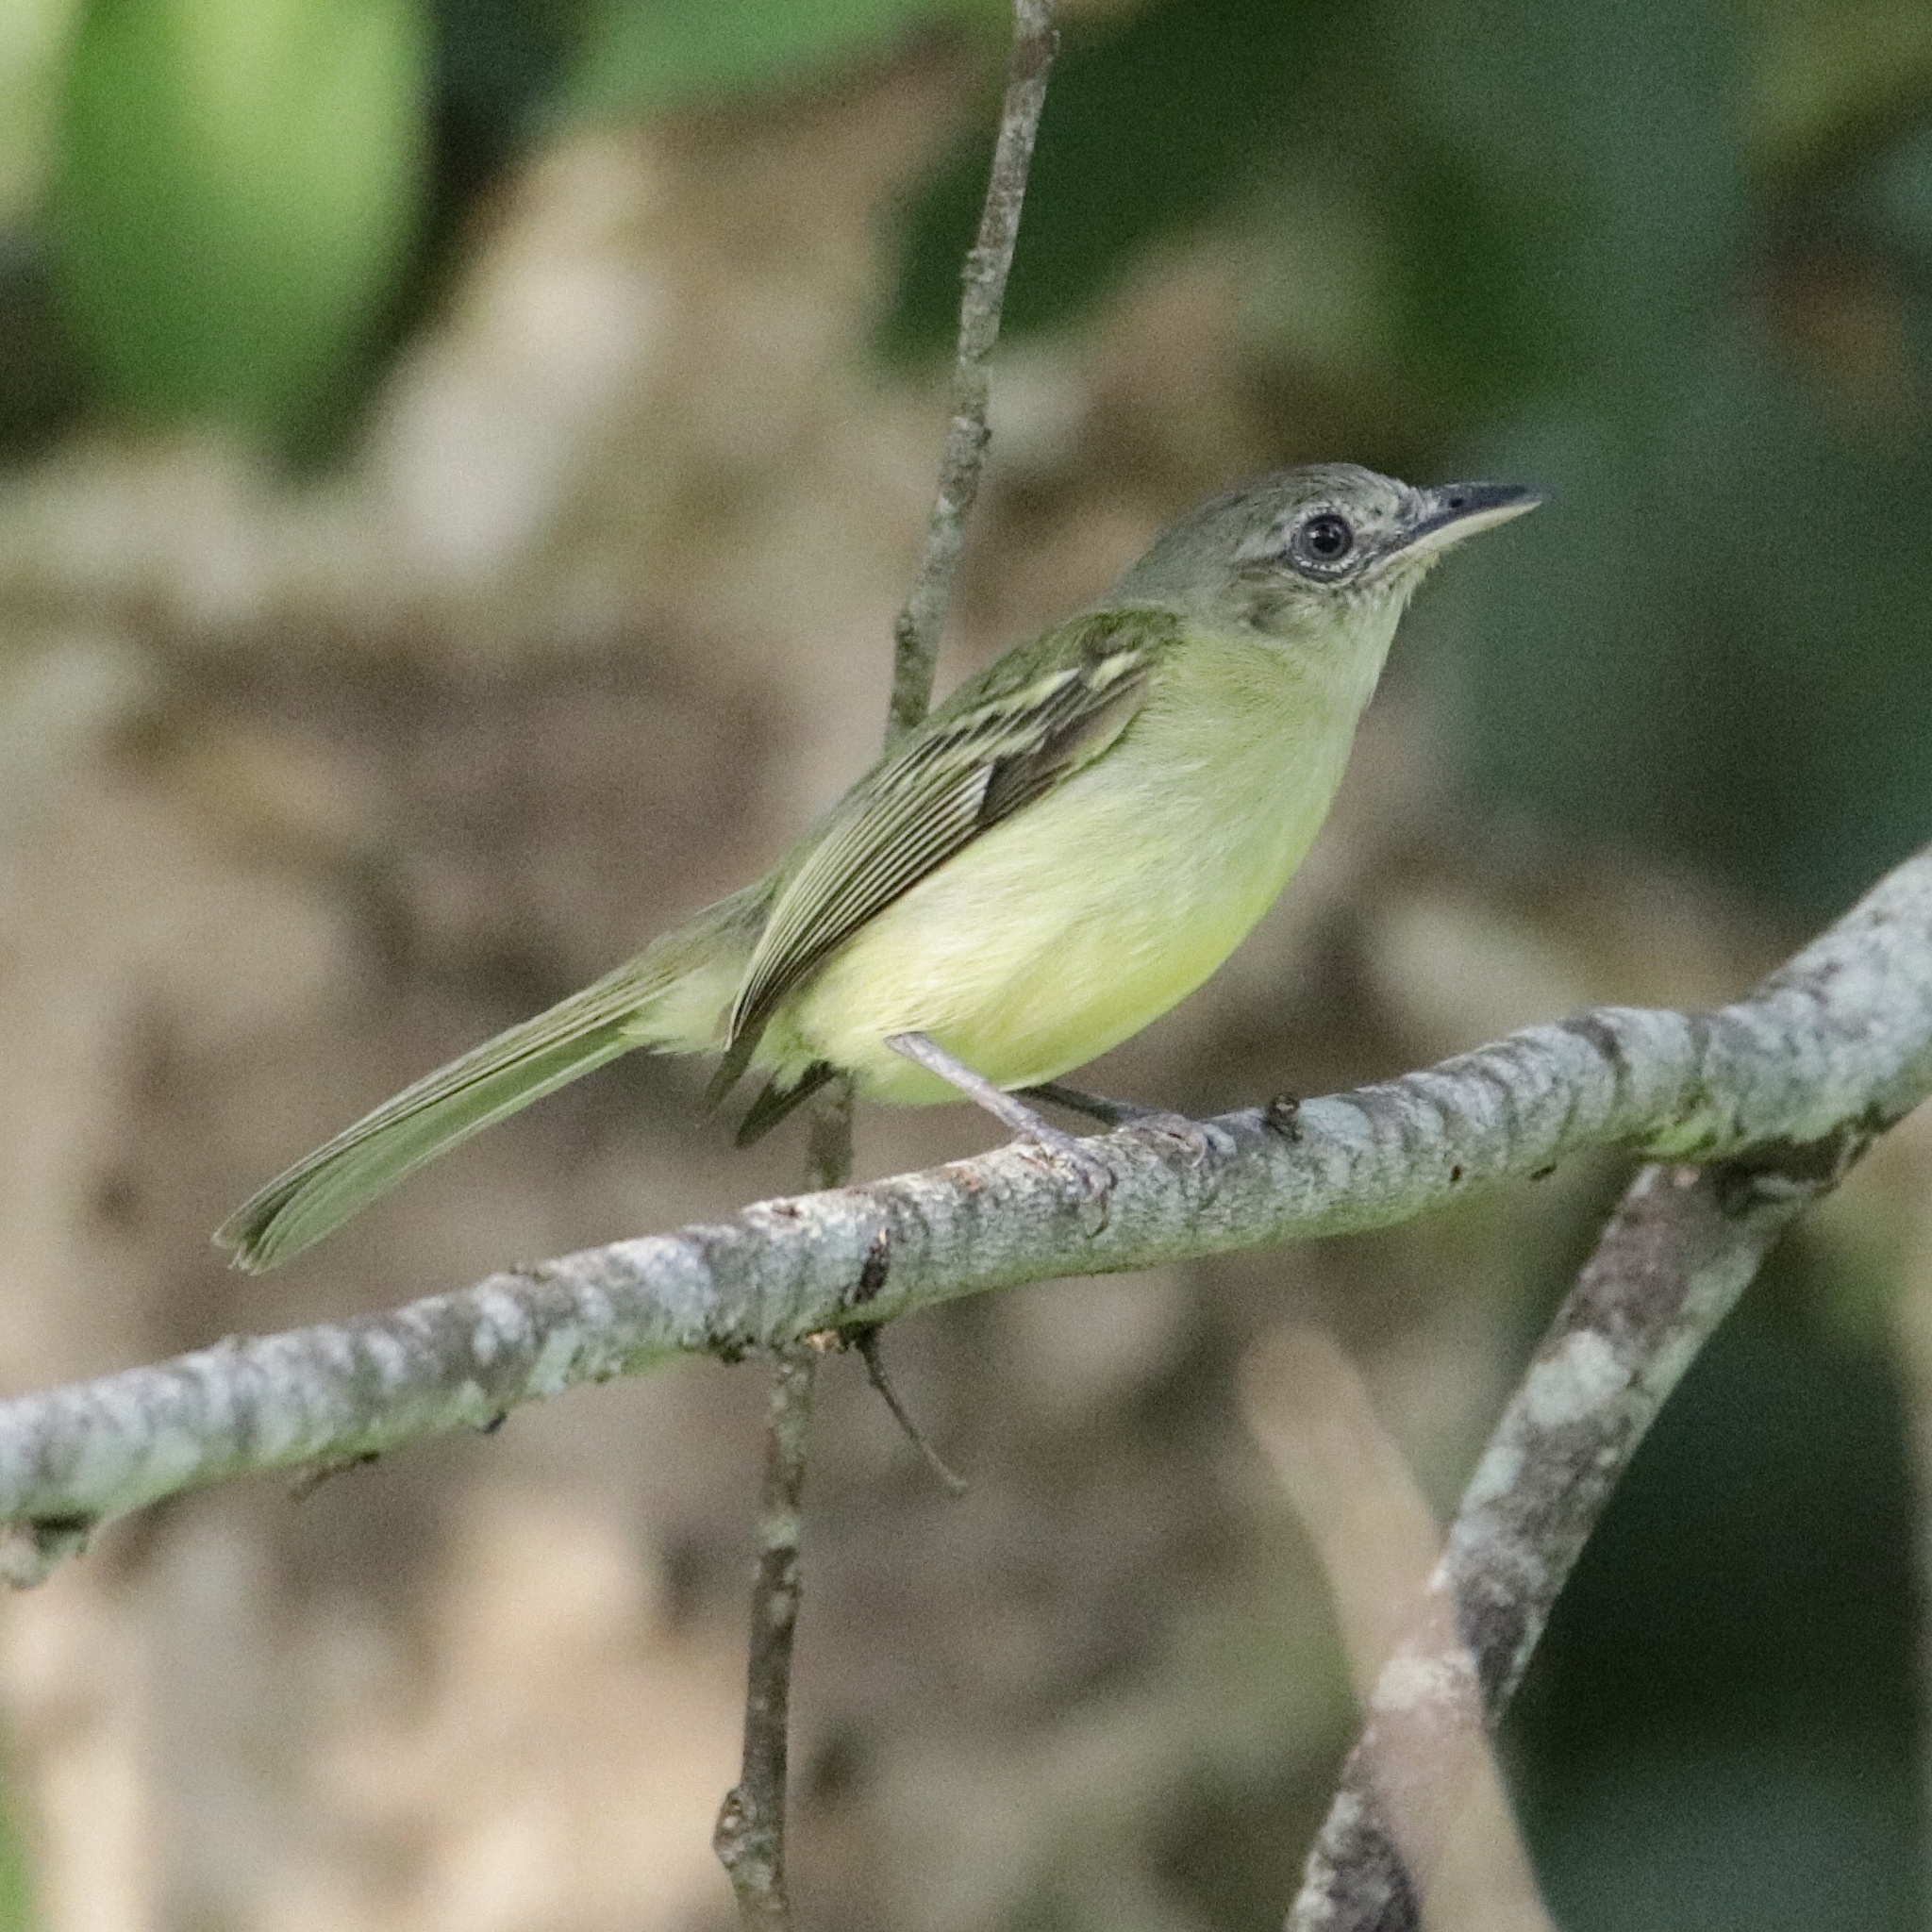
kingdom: Animalia
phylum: Chordata
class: Aves
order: Passeriformes
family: Tyrannidae
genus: Tolmomyias
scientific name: Tolmomyias sulphurescens
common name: Yellow-olive flycatcher
